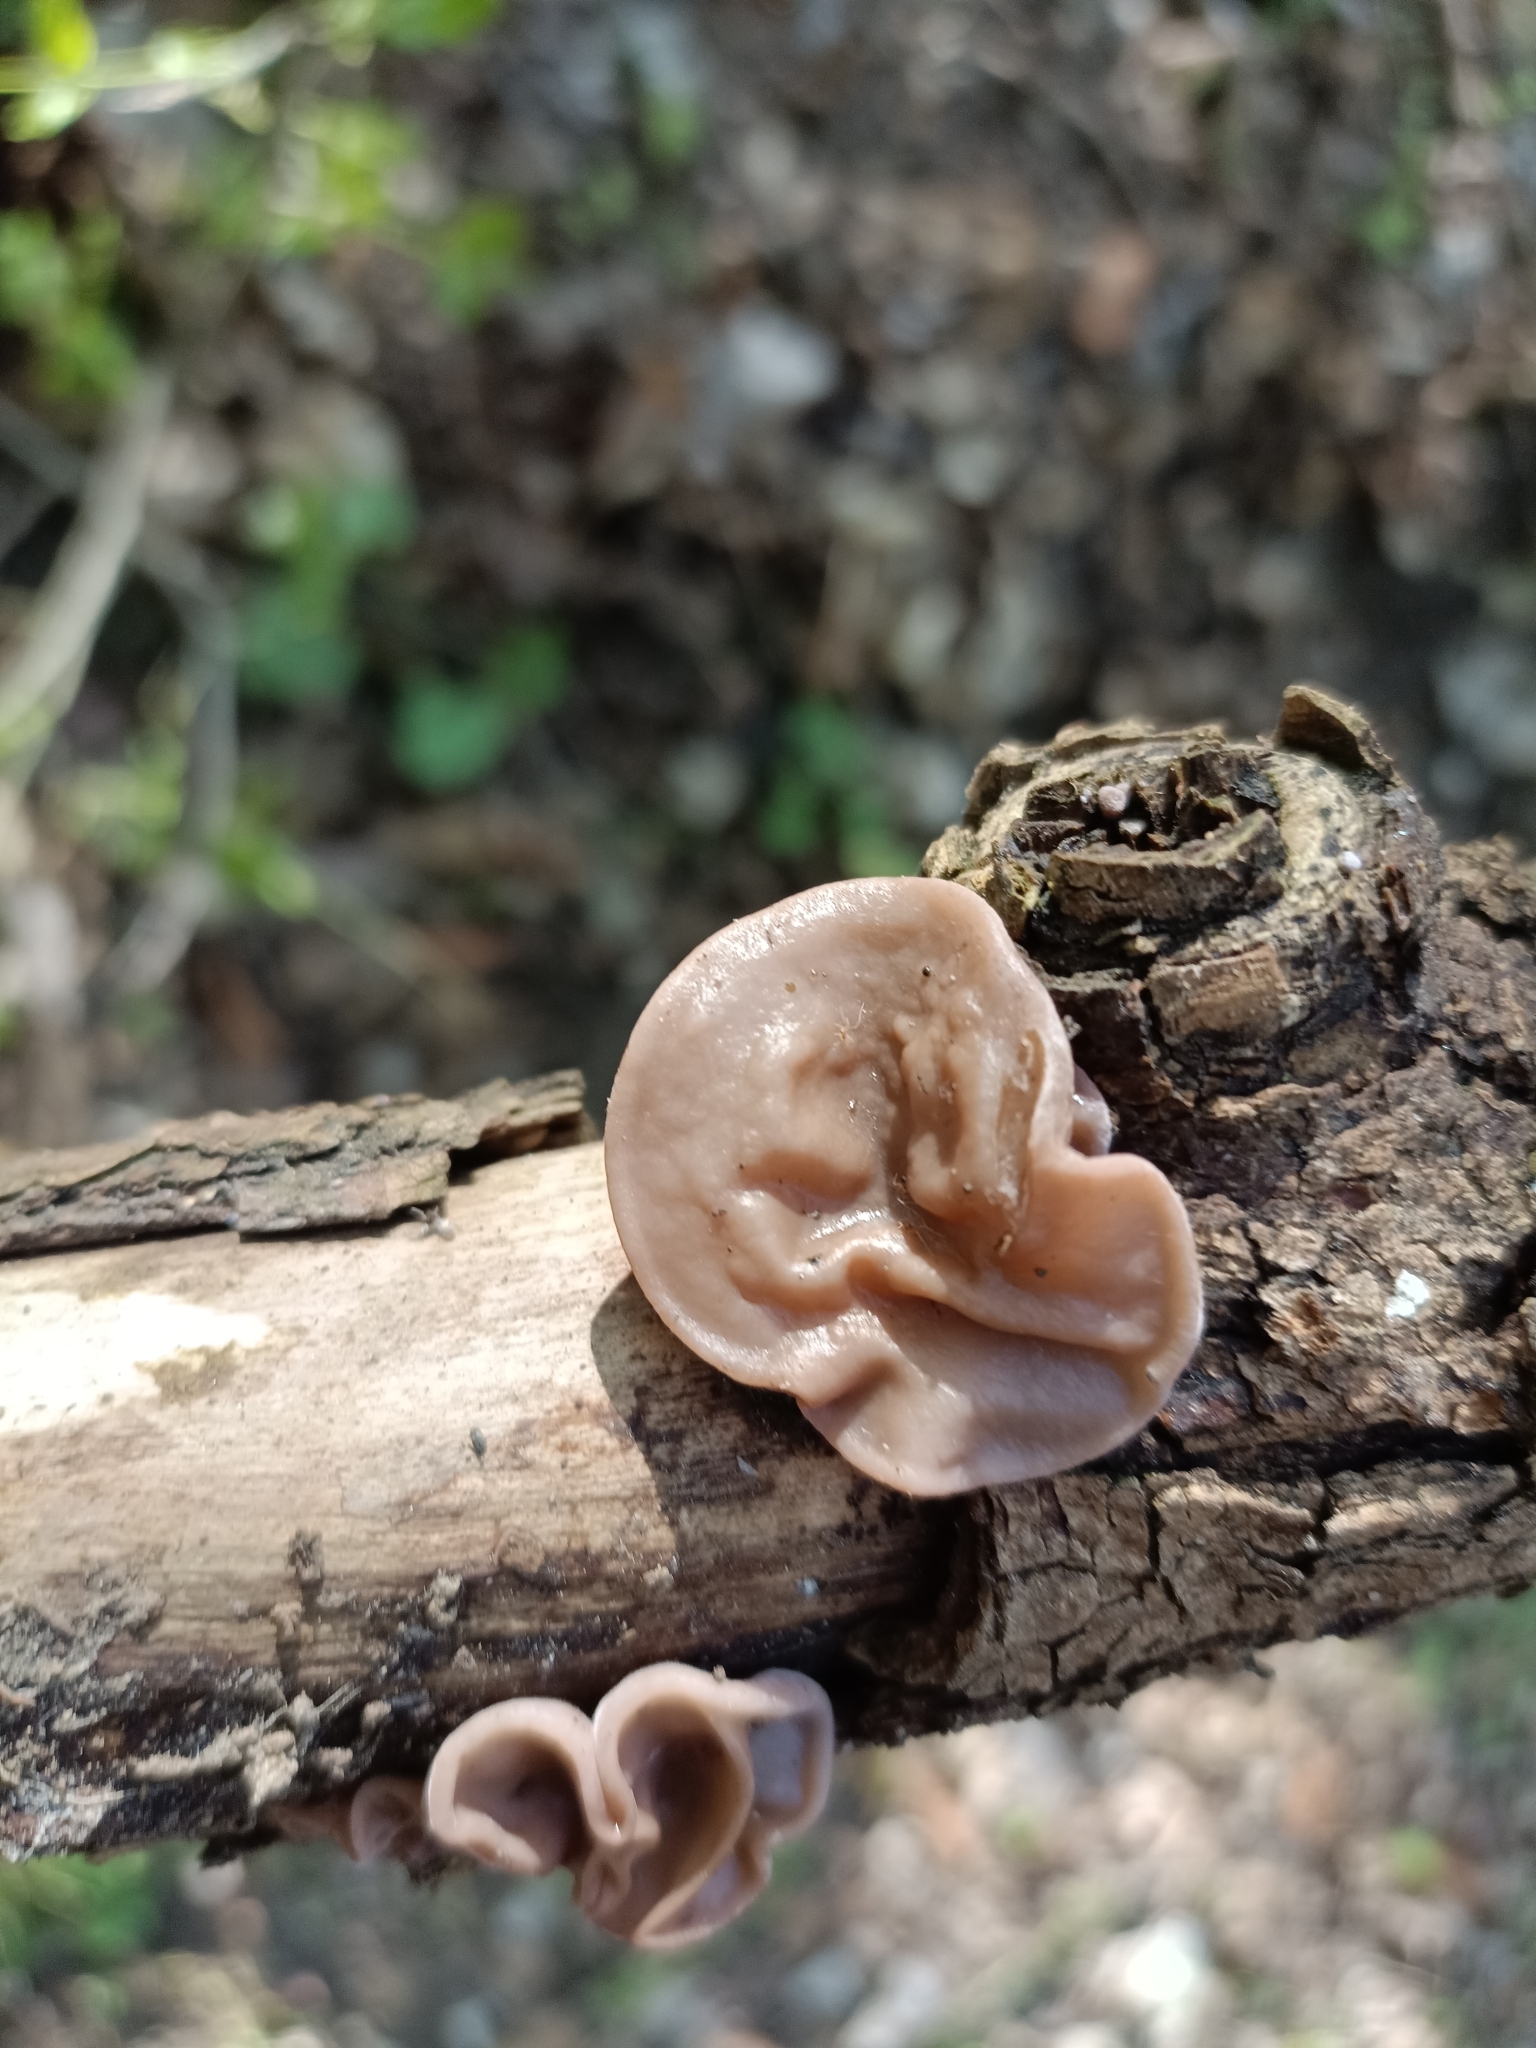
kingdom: Fungi
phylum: Basidiomycota
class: Agaricomycetes
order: Auriculariales
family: Auriculariaceae
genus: Auricularia
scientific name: Auricularia auricula-judae
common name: Jelly ear
